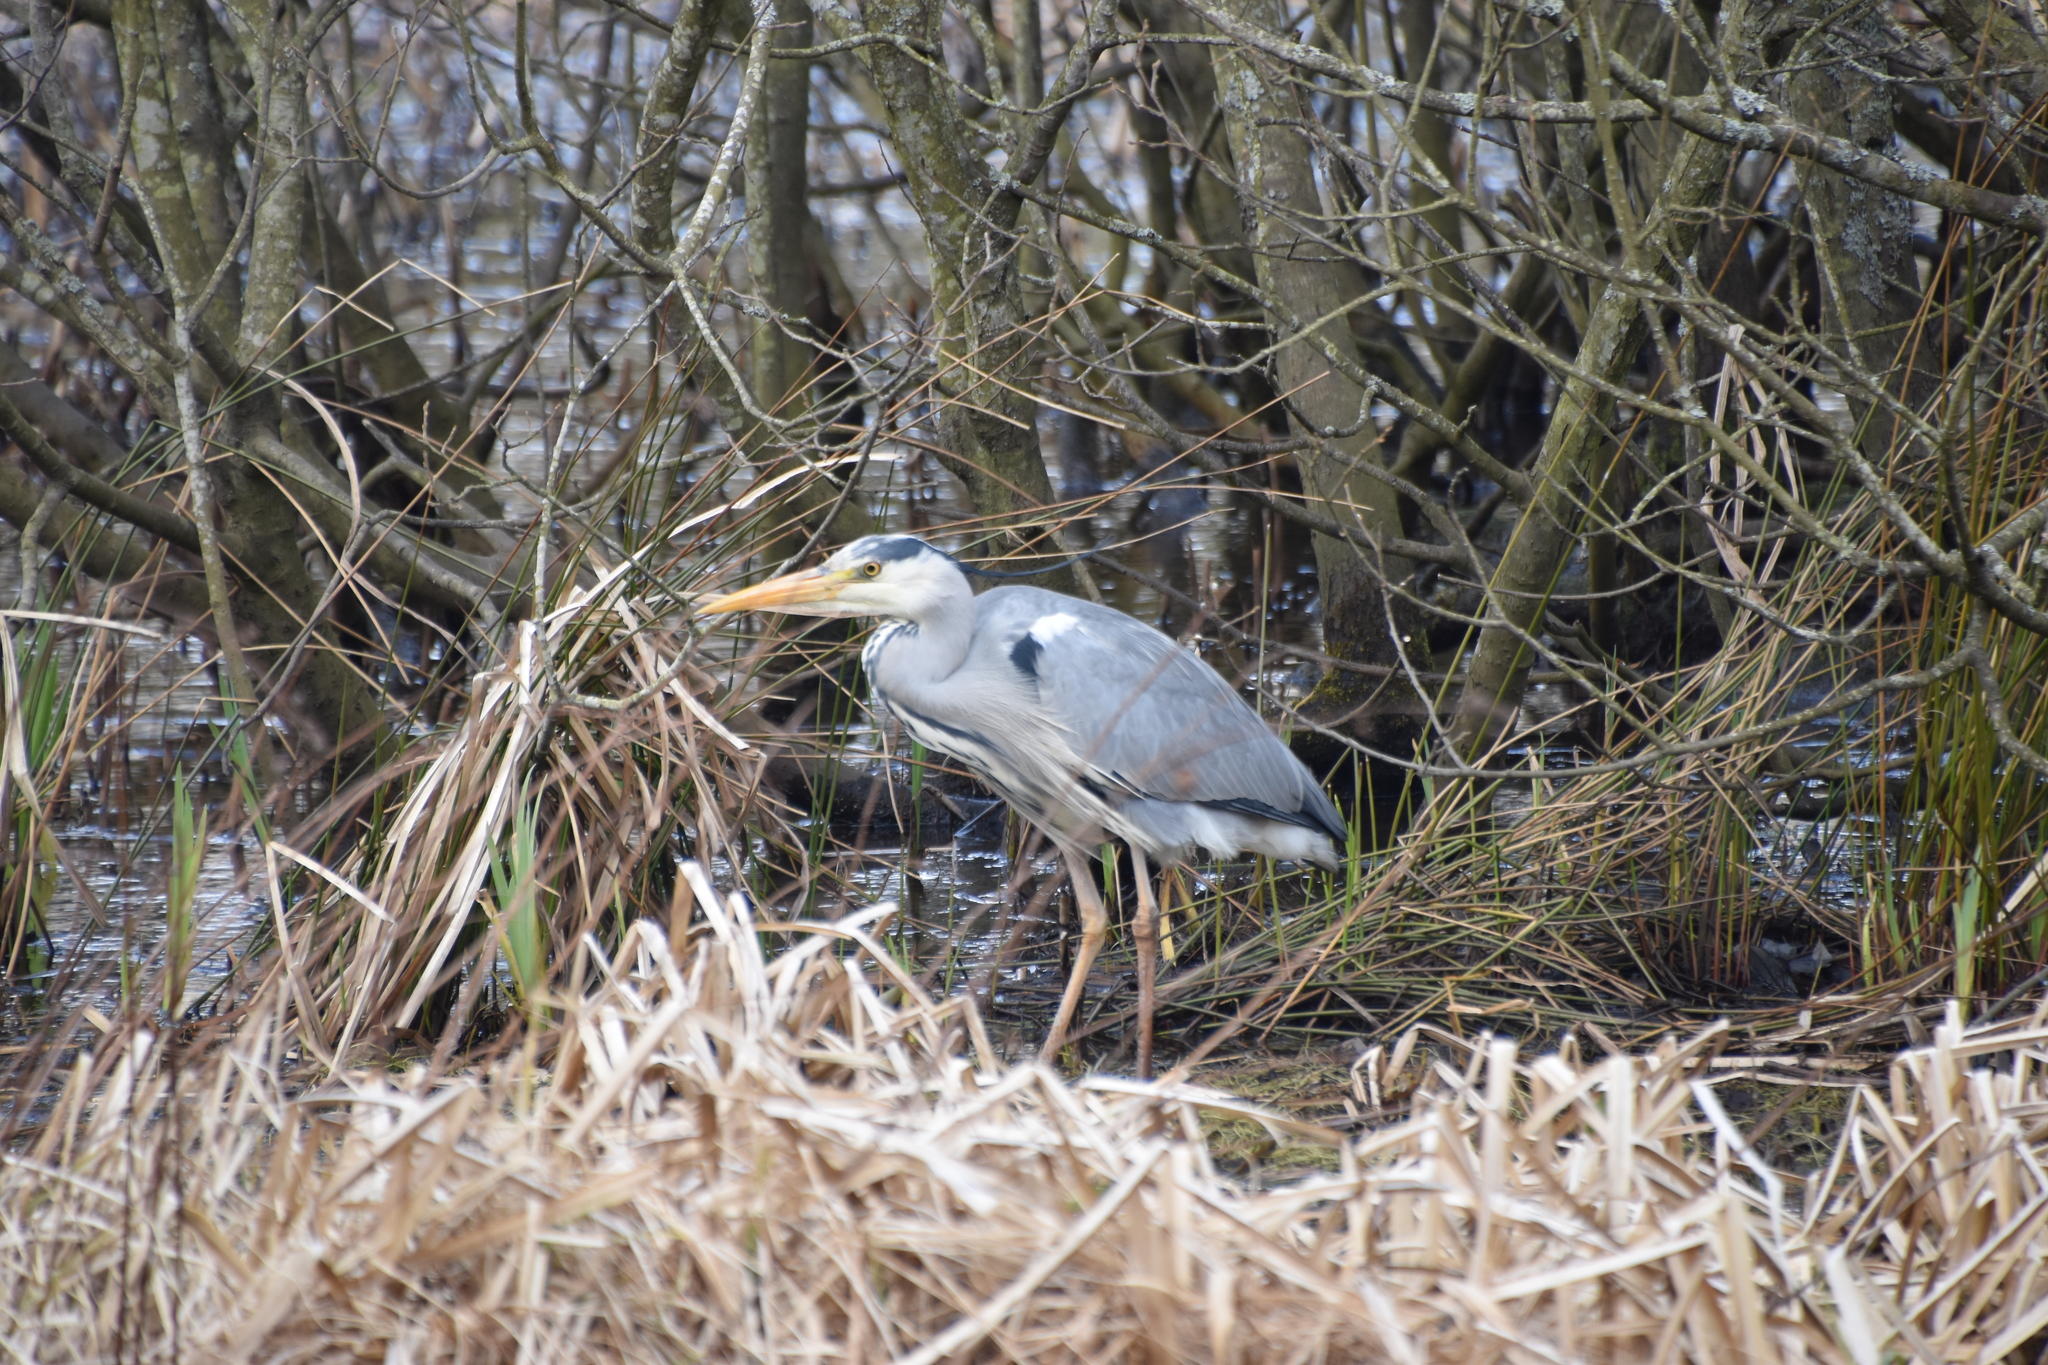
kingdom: Animalia
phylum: Chordata
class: Aves
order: Pelecaniformes
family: Ardeidae
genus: Ardea
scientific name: Ardea cinerea
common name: Grey heron
